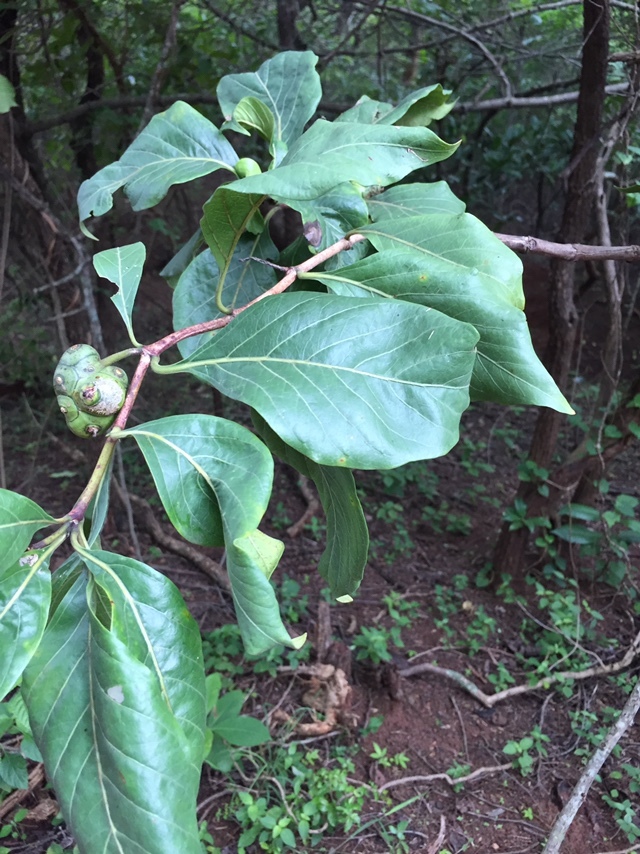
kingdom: Plantae
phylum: Tracheophyta
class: Magnoliopsida
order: Gentianales
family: Rubiaceae
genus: Morinda
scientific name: Morinda coreia
